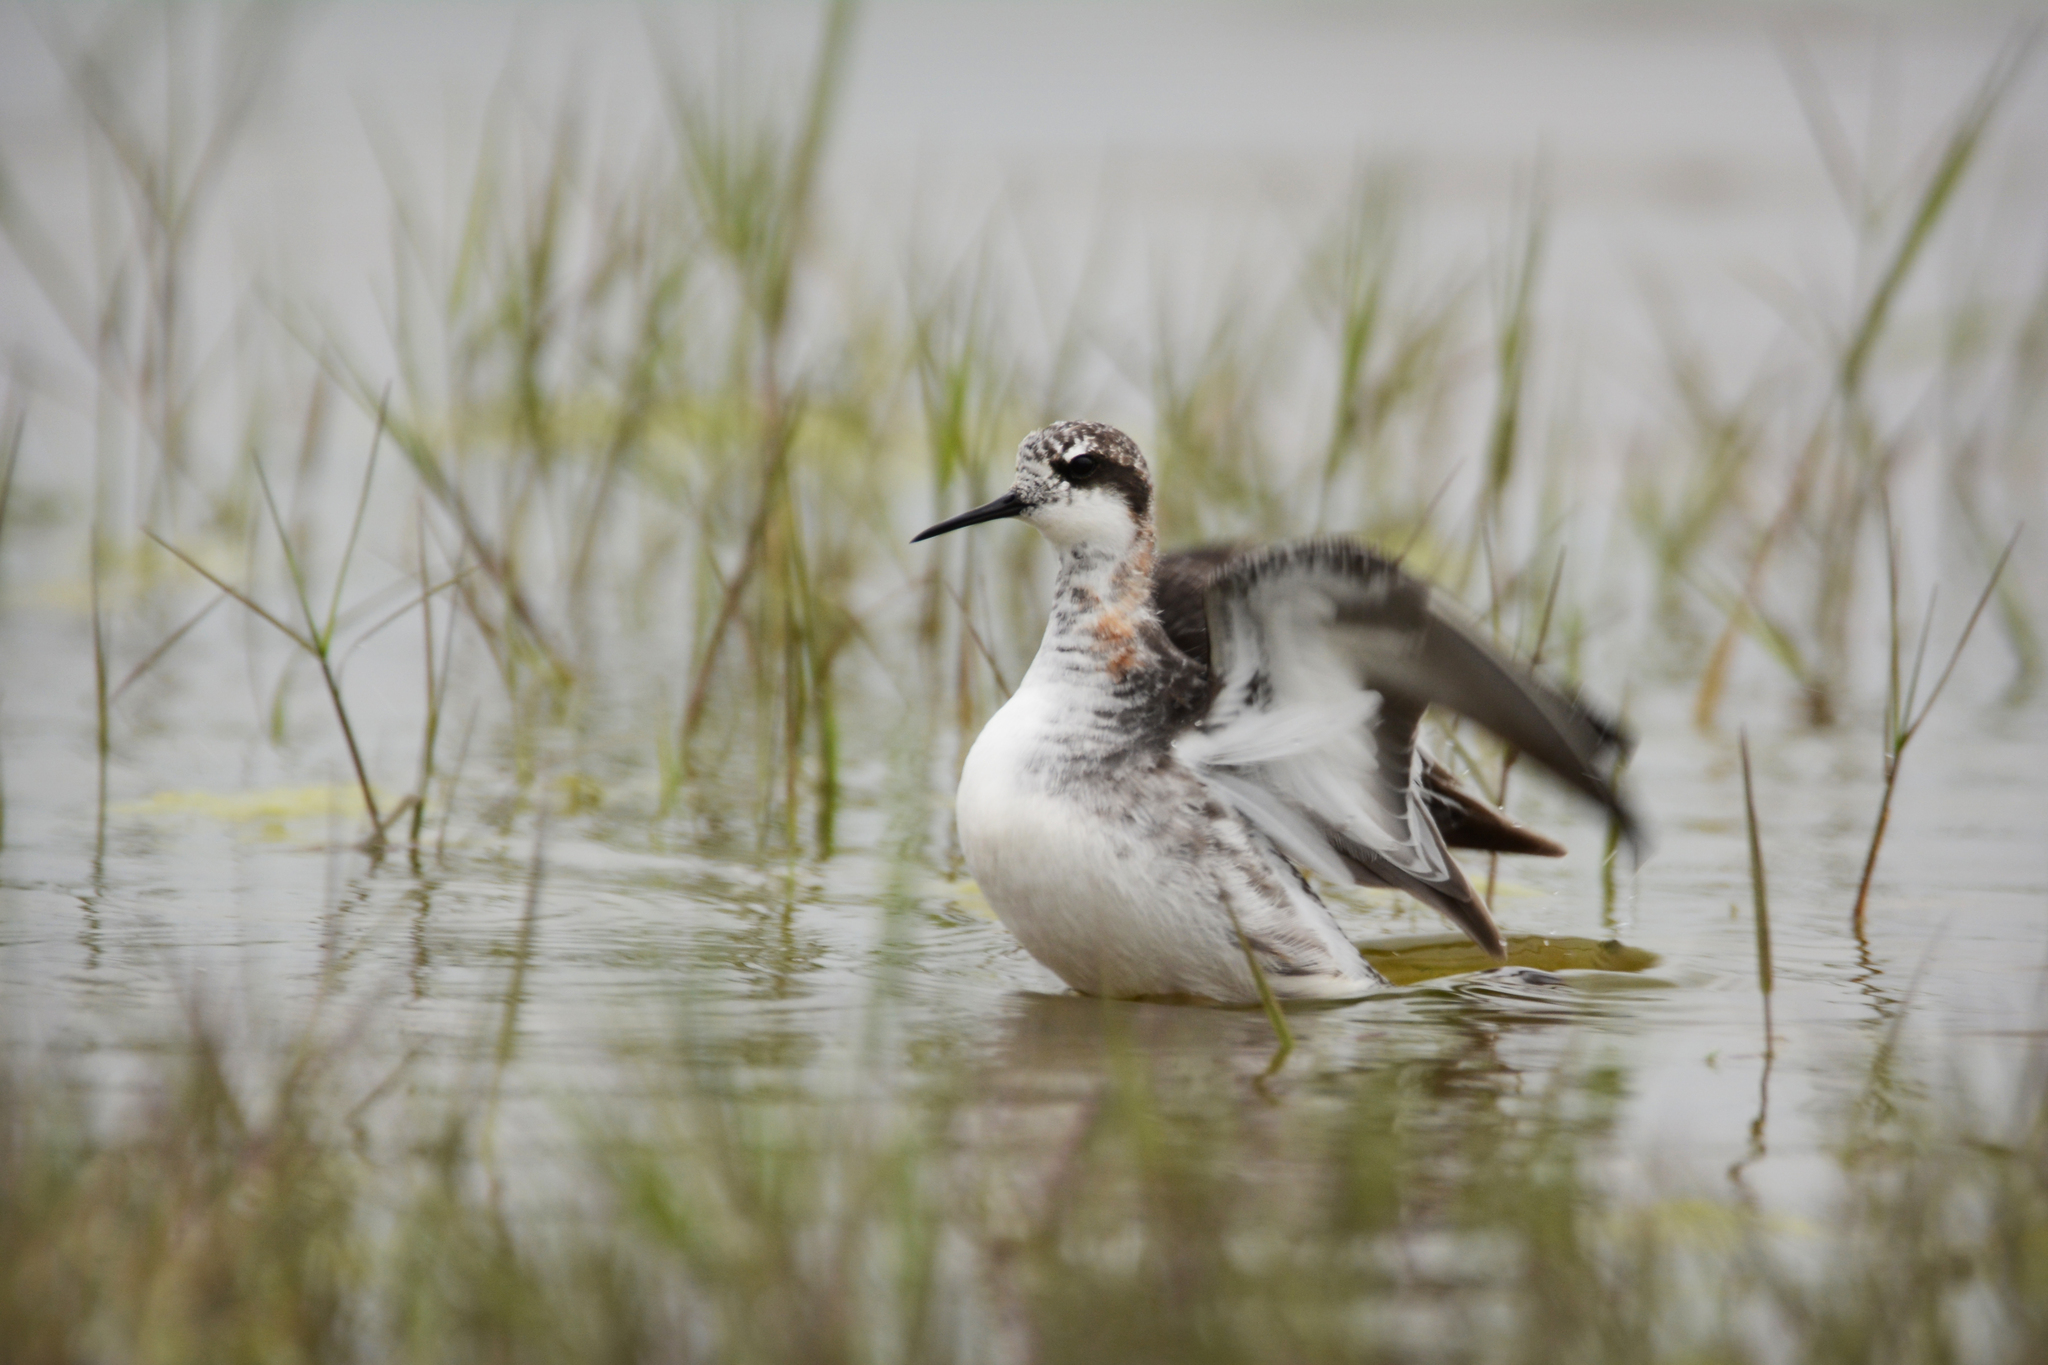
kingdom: Animalia
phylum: Chordata
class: Aves
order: Charadriiformes
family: Scolopacidae
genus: Phalaropus
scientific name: Phalaropus lobatus
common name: Red-necked phalarope
